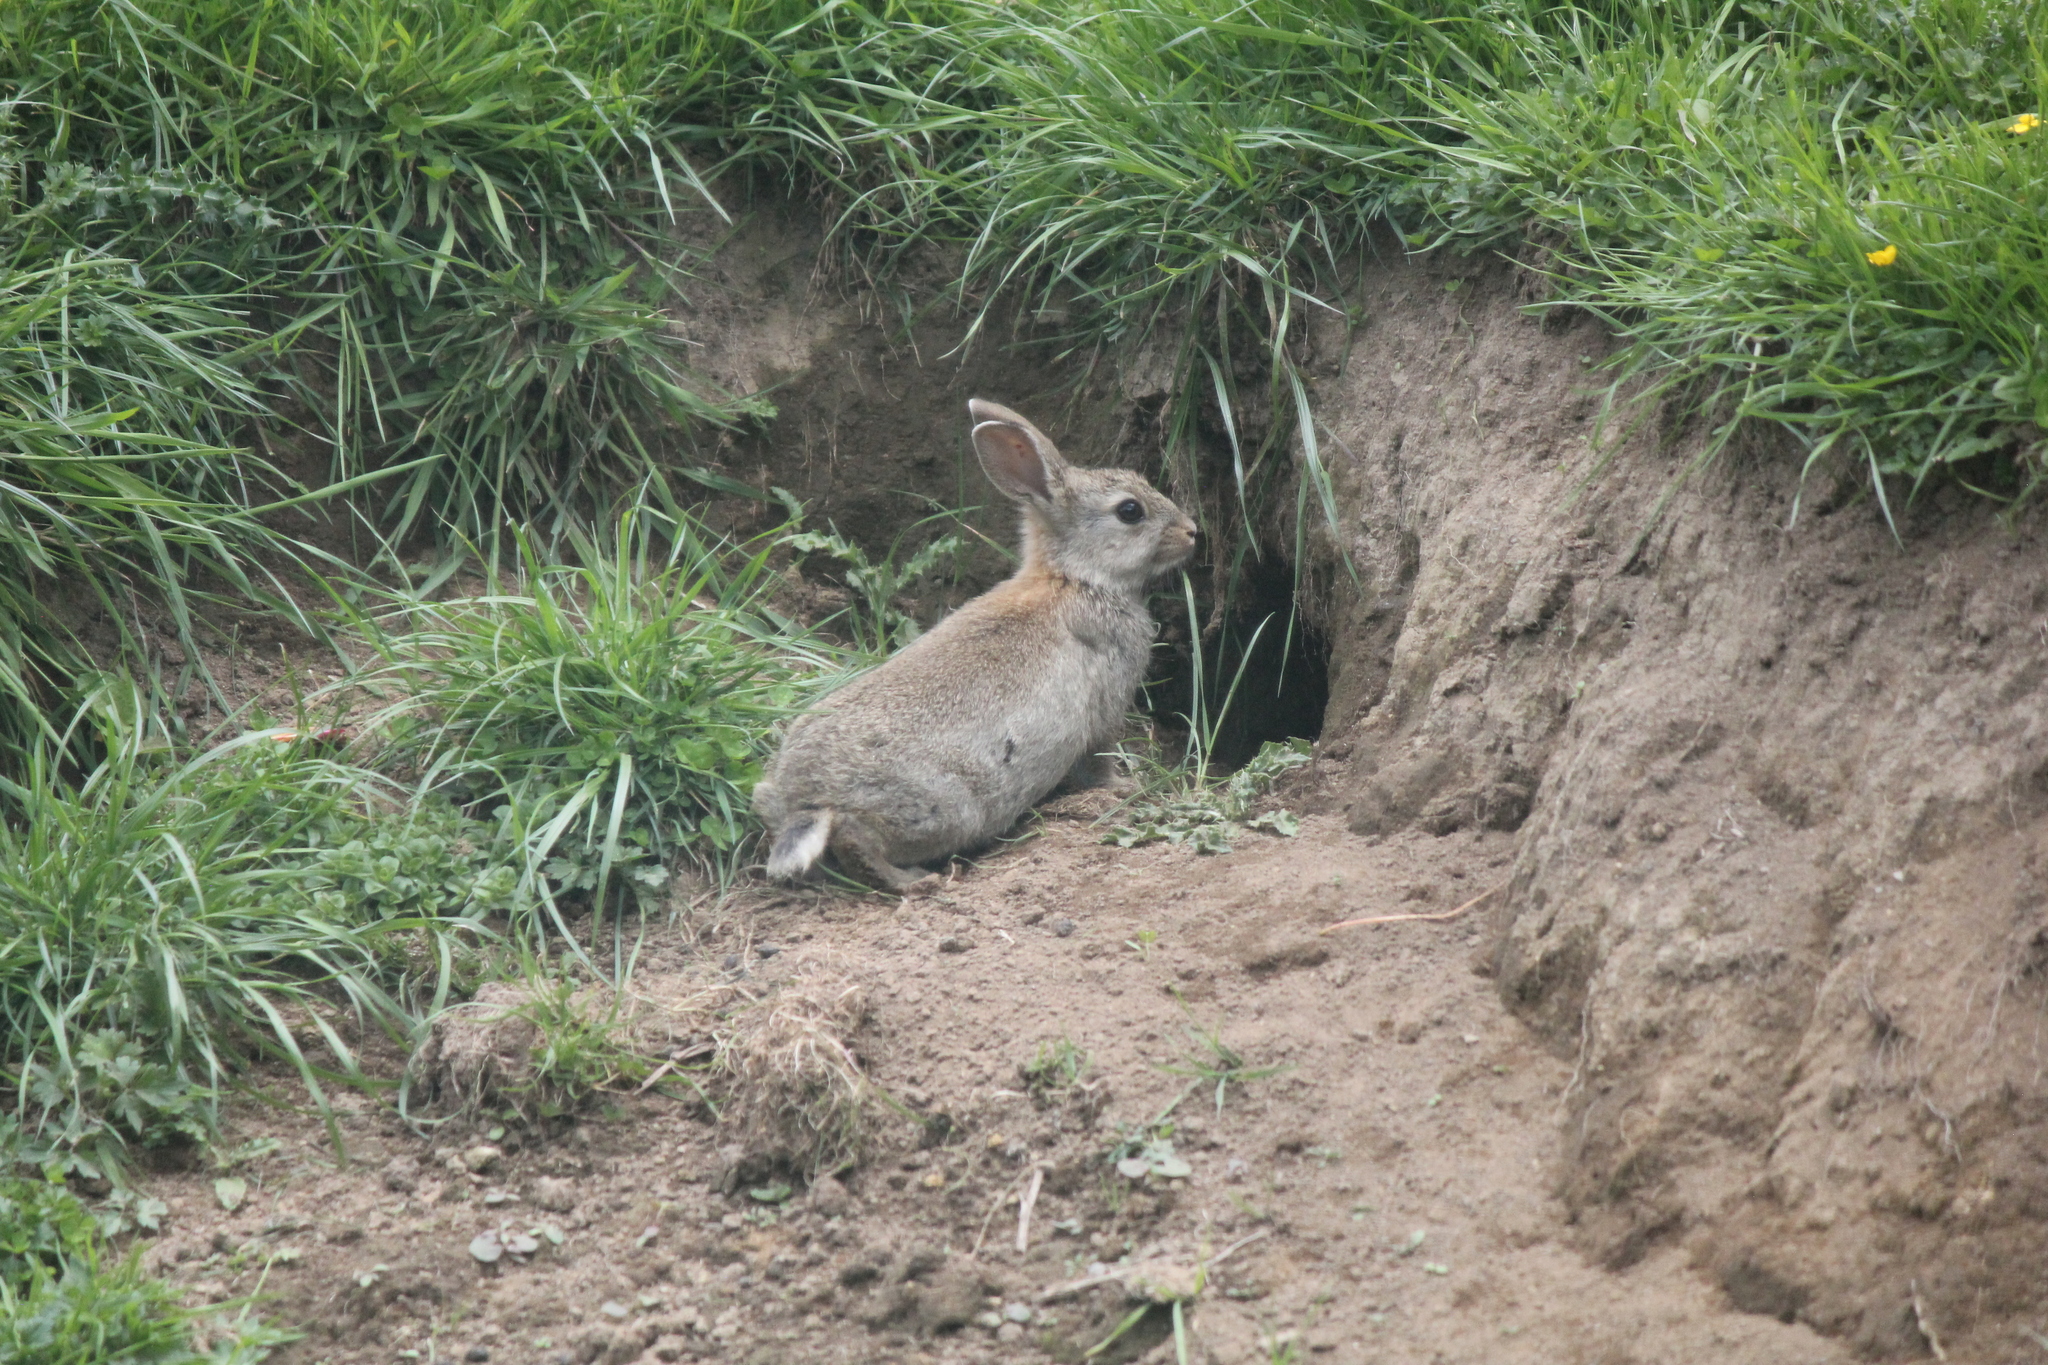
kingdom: Animalia
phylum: Chordata
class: Mammalia
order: Lagomorpha
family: Leporidae
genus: Oryctolagus
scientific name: Oryctolagus cuniculus
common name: European rabbit
